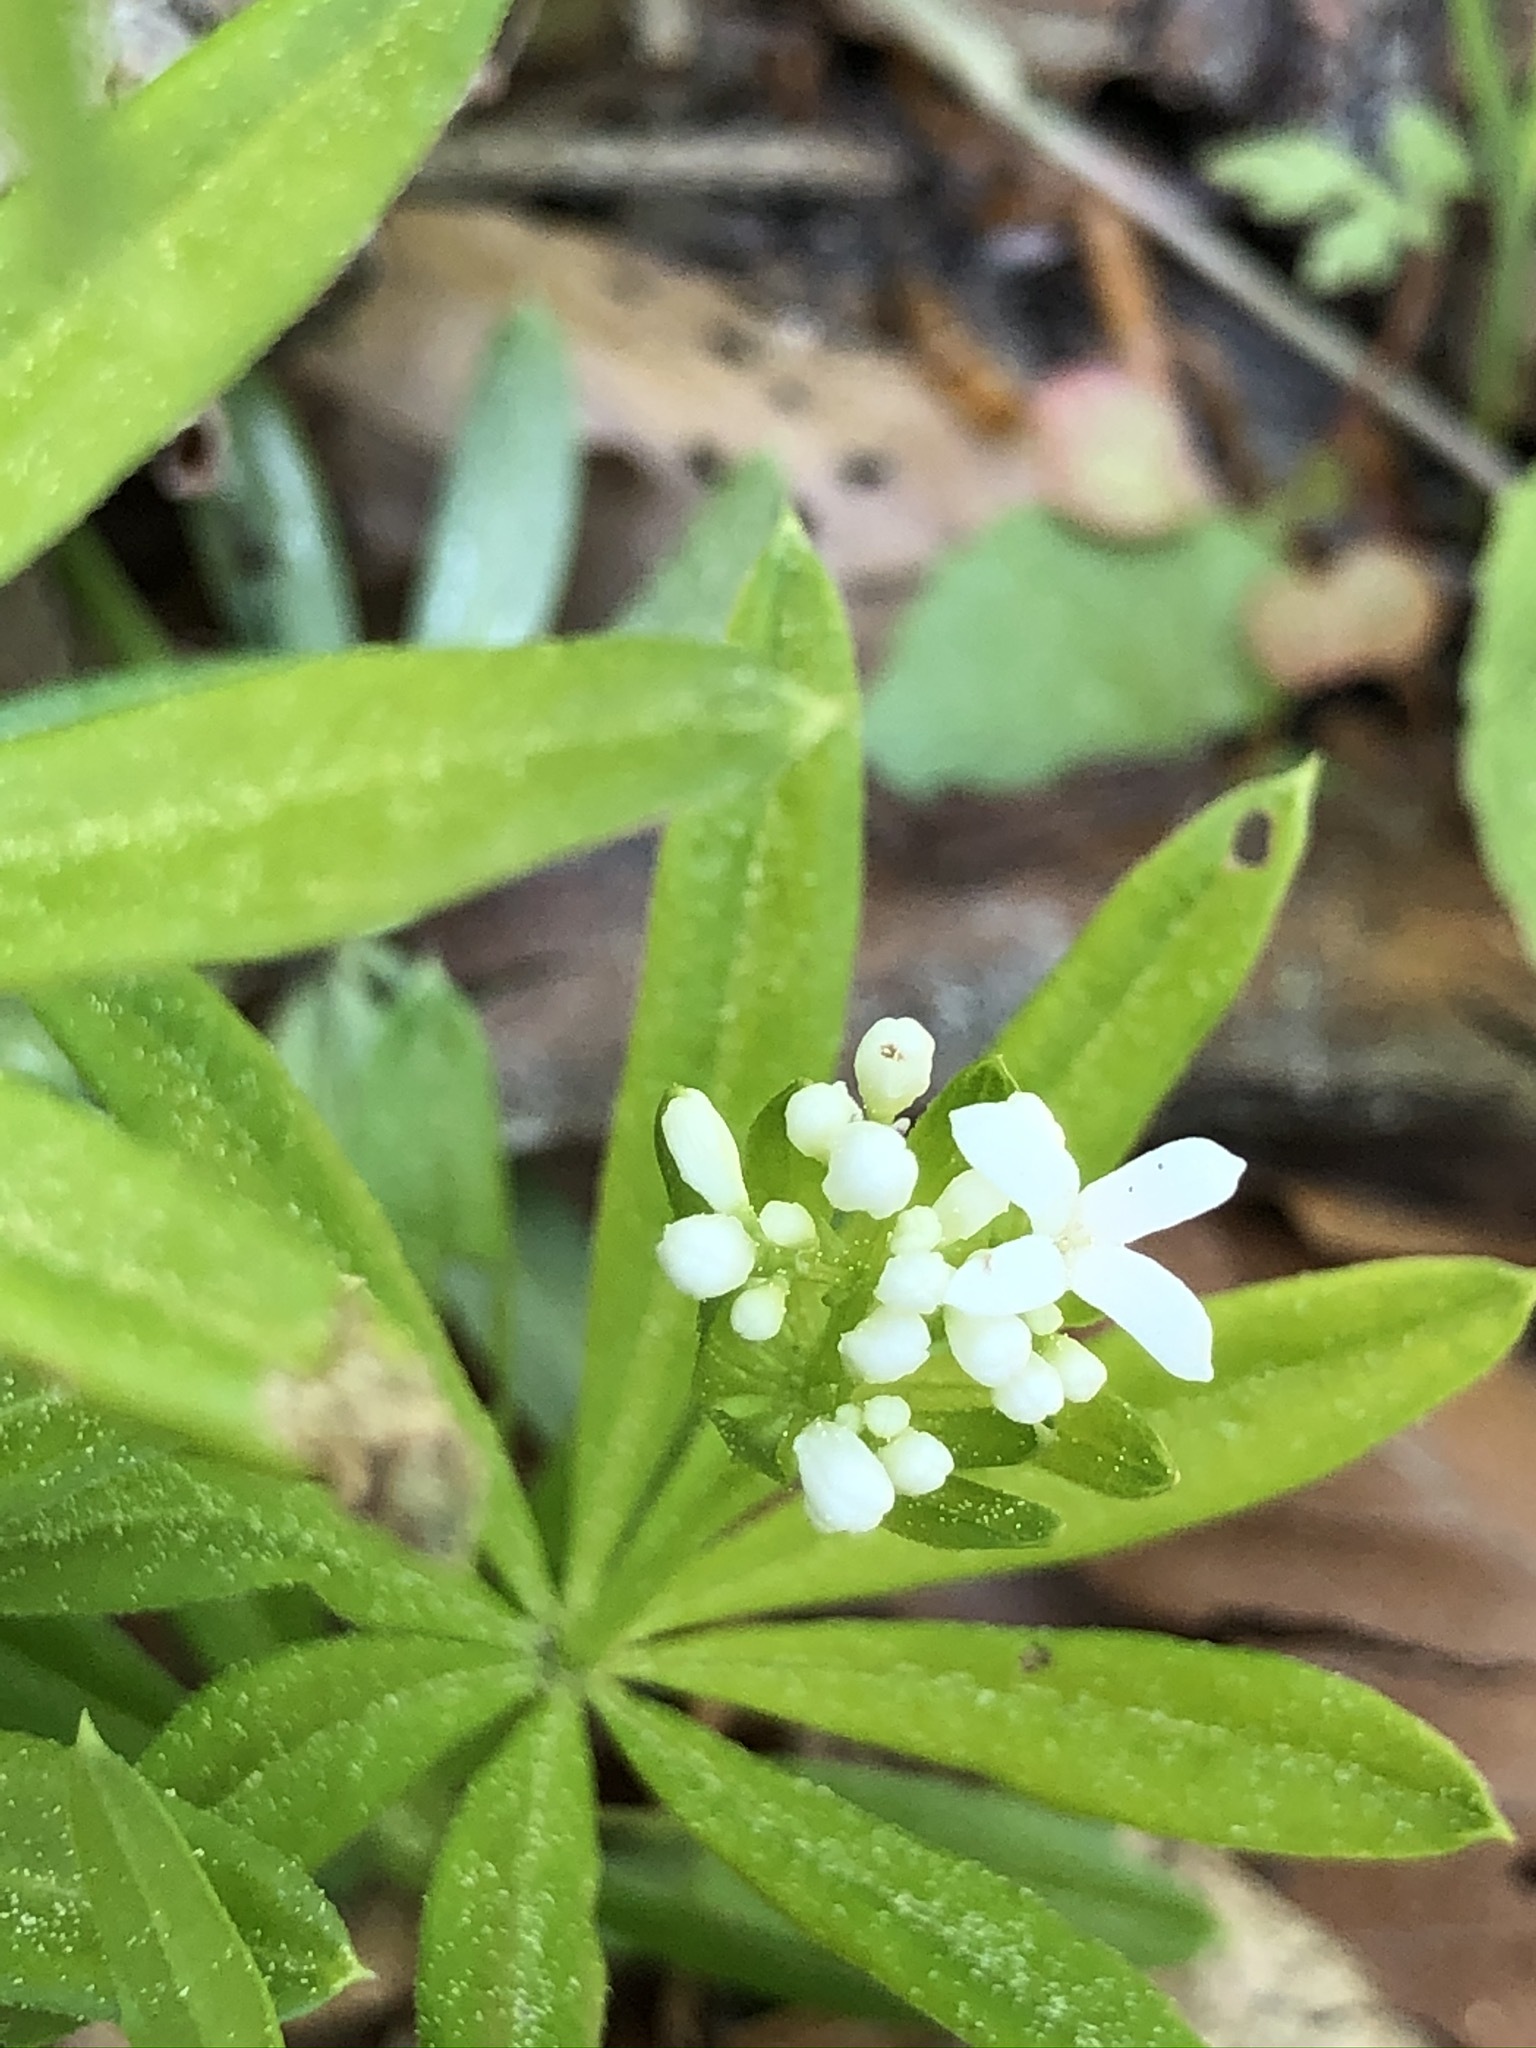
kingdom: Plantae
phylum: Tracheophyta
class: Magnoliopsida
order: Gentianales
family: Rubiaceae
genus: Galium
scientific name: Galium odoratum
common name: Sweet woodruff
